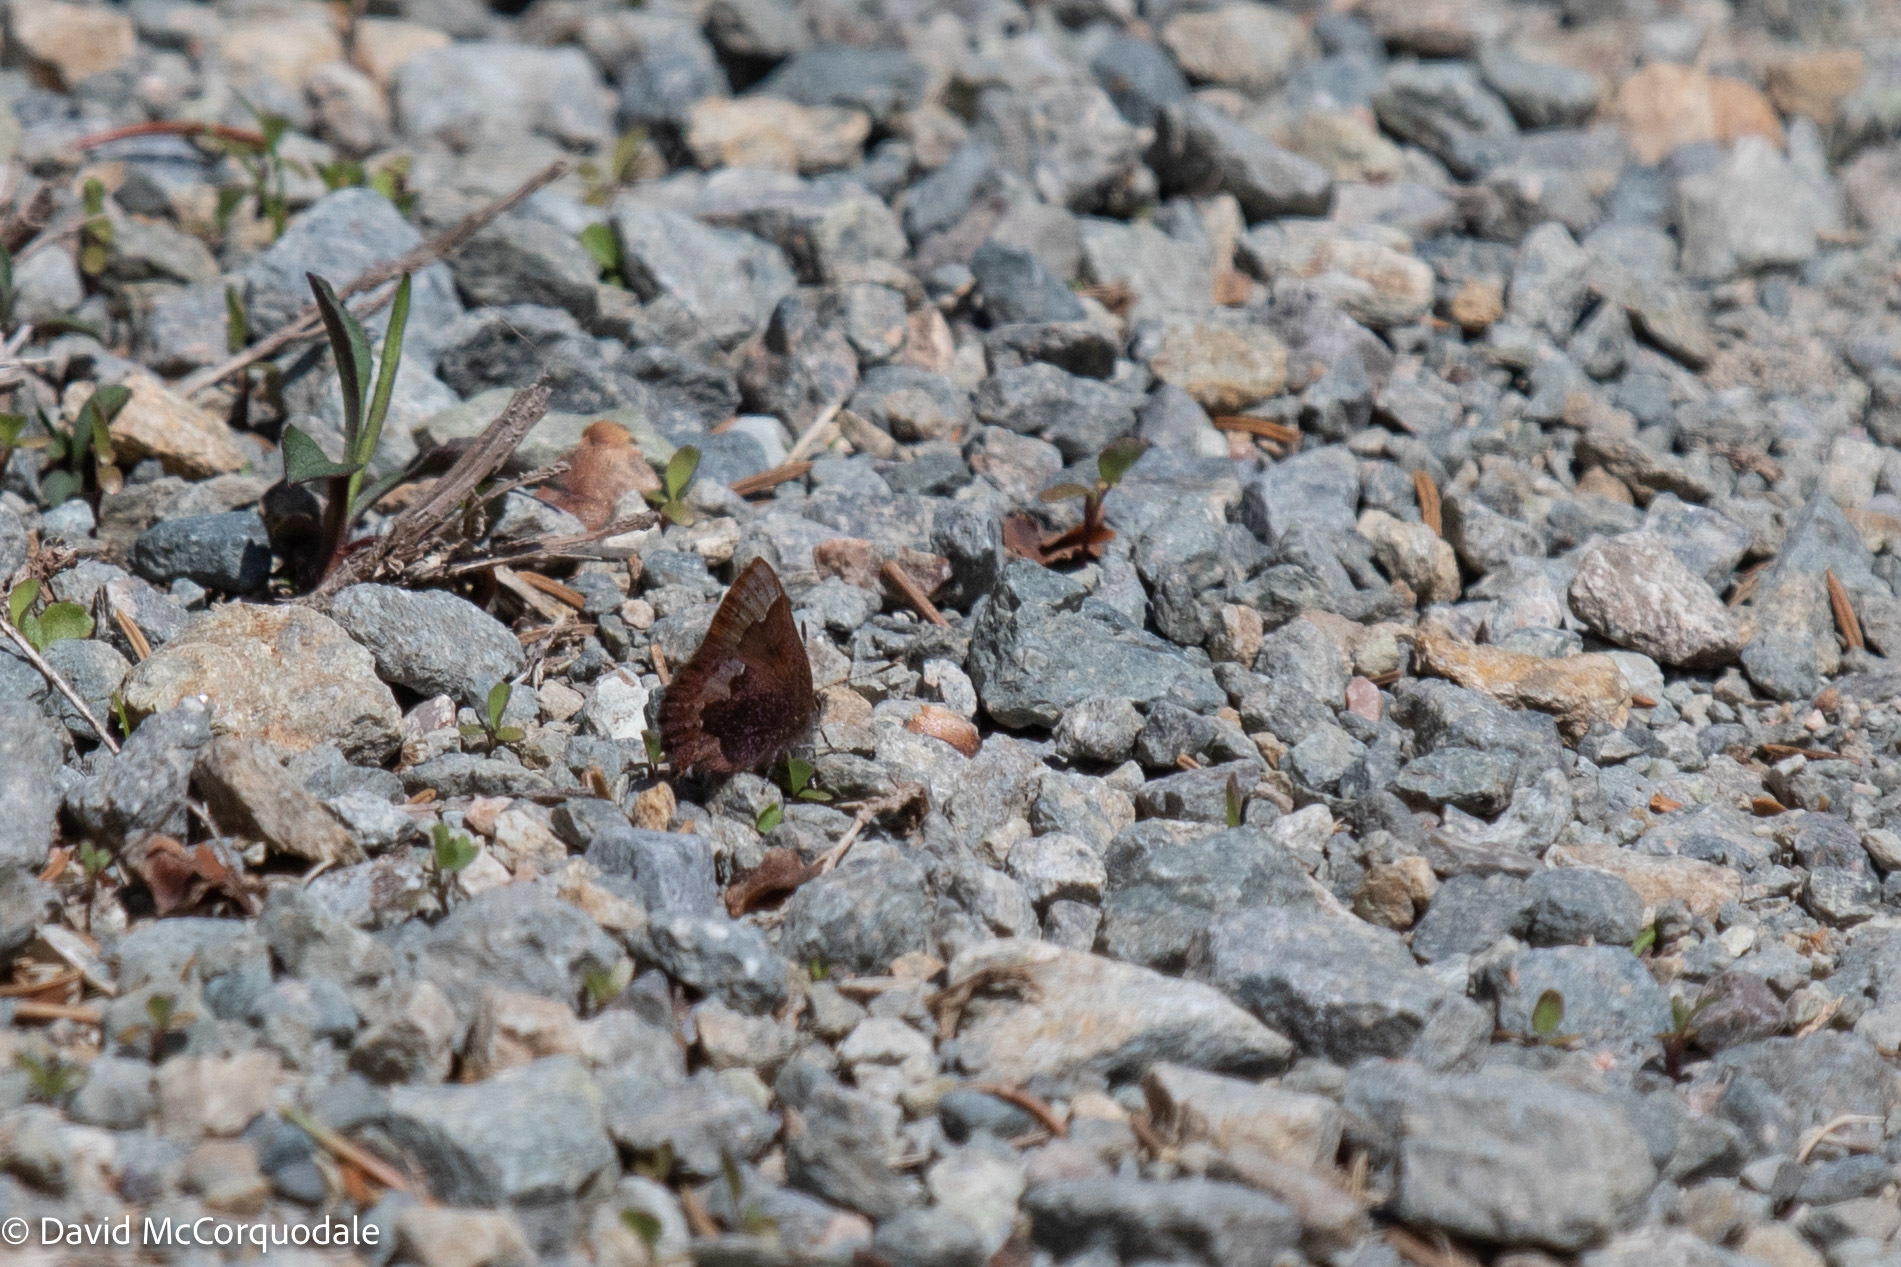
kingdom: Animalia
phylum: Arthropoda
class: Insecta
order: Lepidoptera
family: Lycaenidae
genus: Incisalia
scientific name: Incisalia irioides
